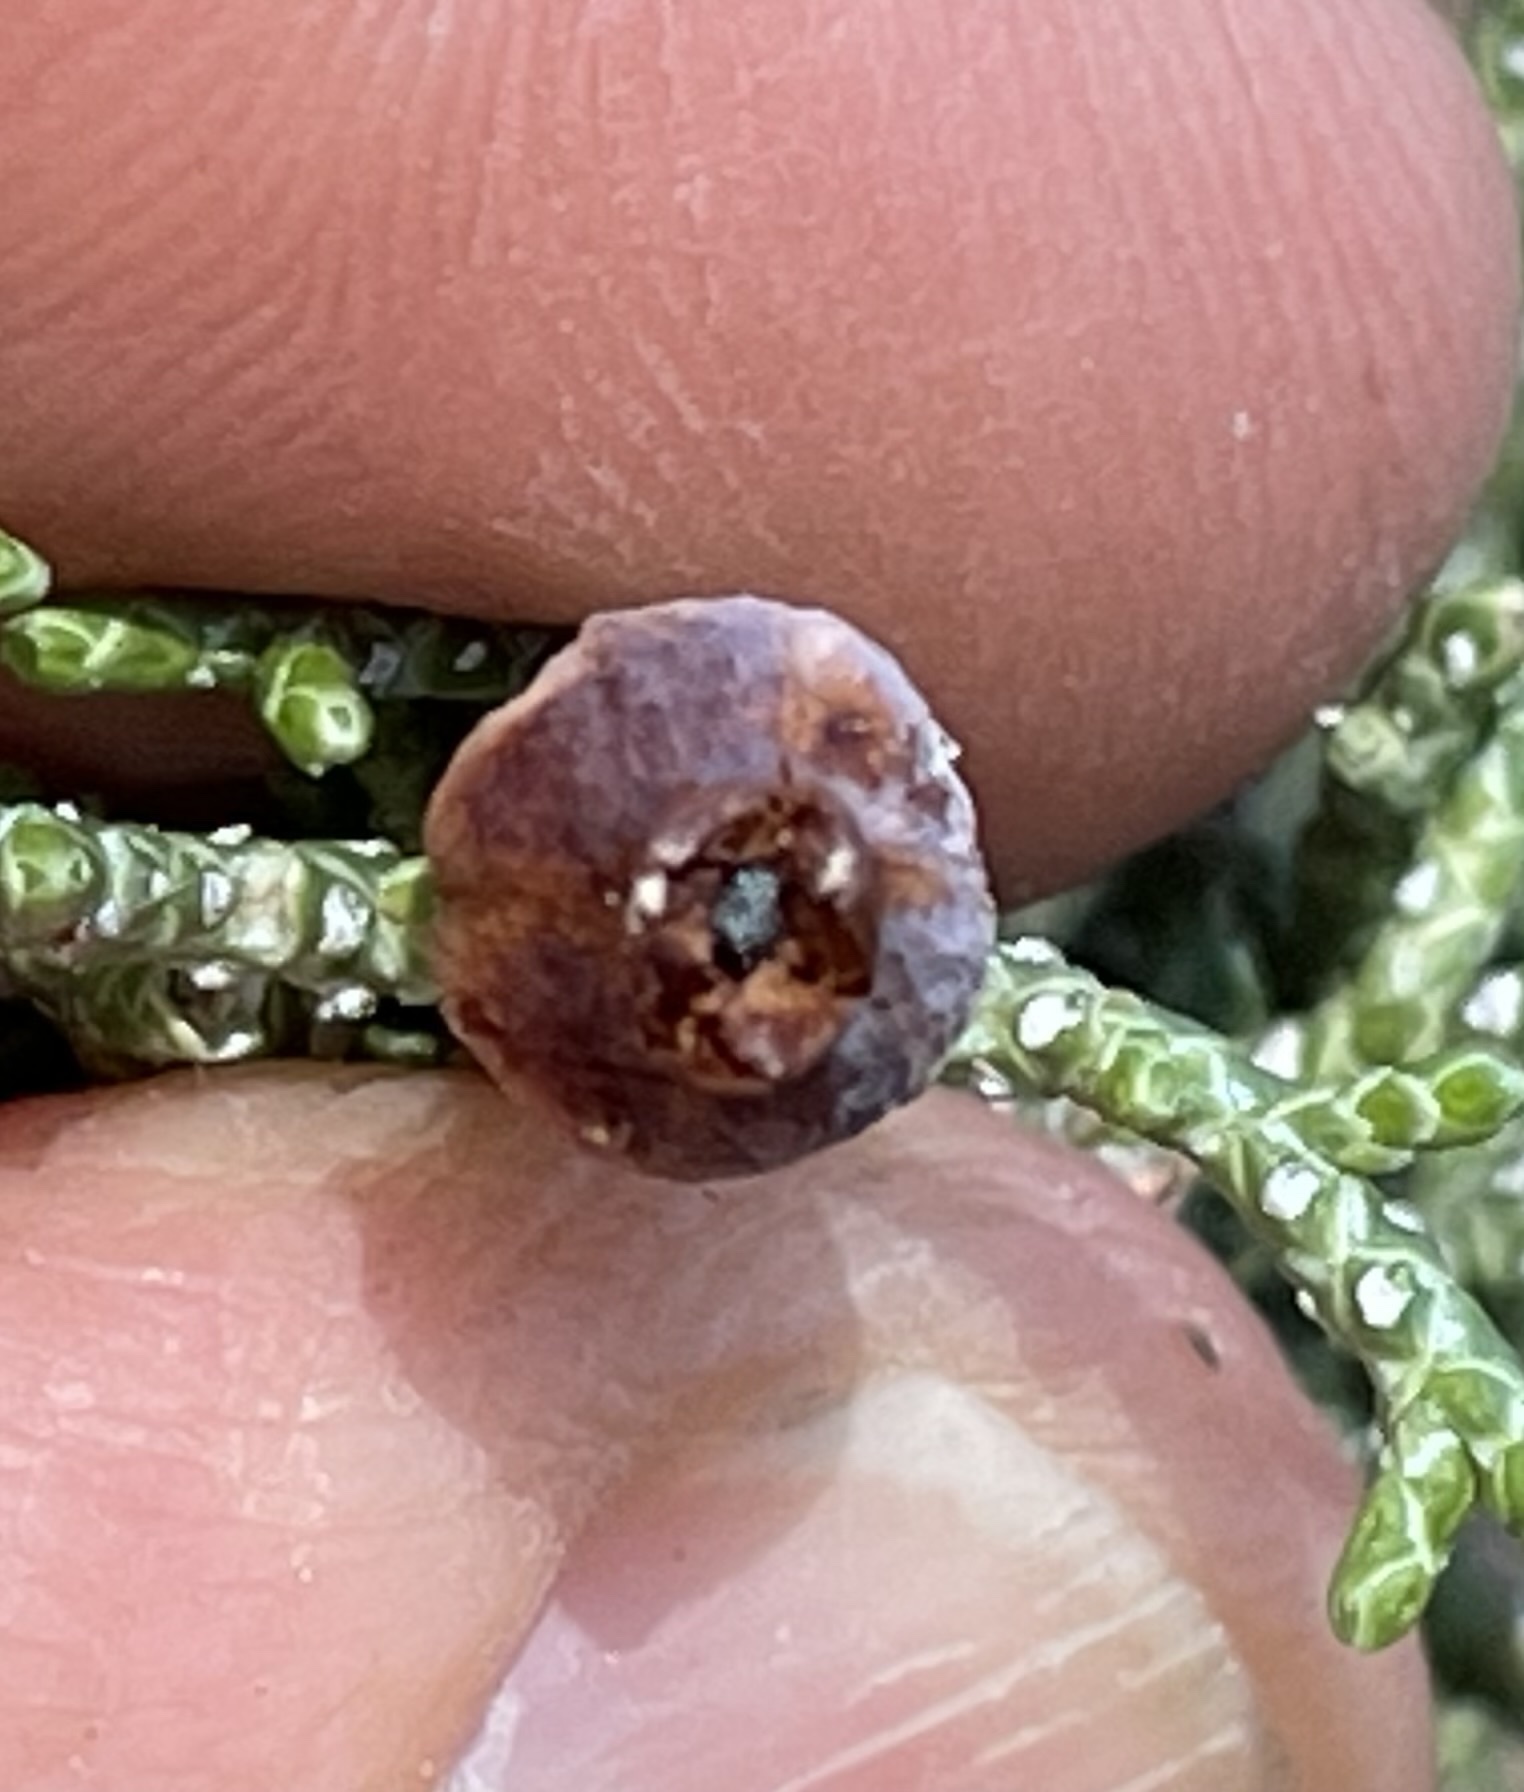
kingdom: Animalia
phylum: Arthropoda
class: Insecta
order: Diptera
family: Cecidomyiidae
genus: Walshomyia
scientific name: Walshomyia juniperina
